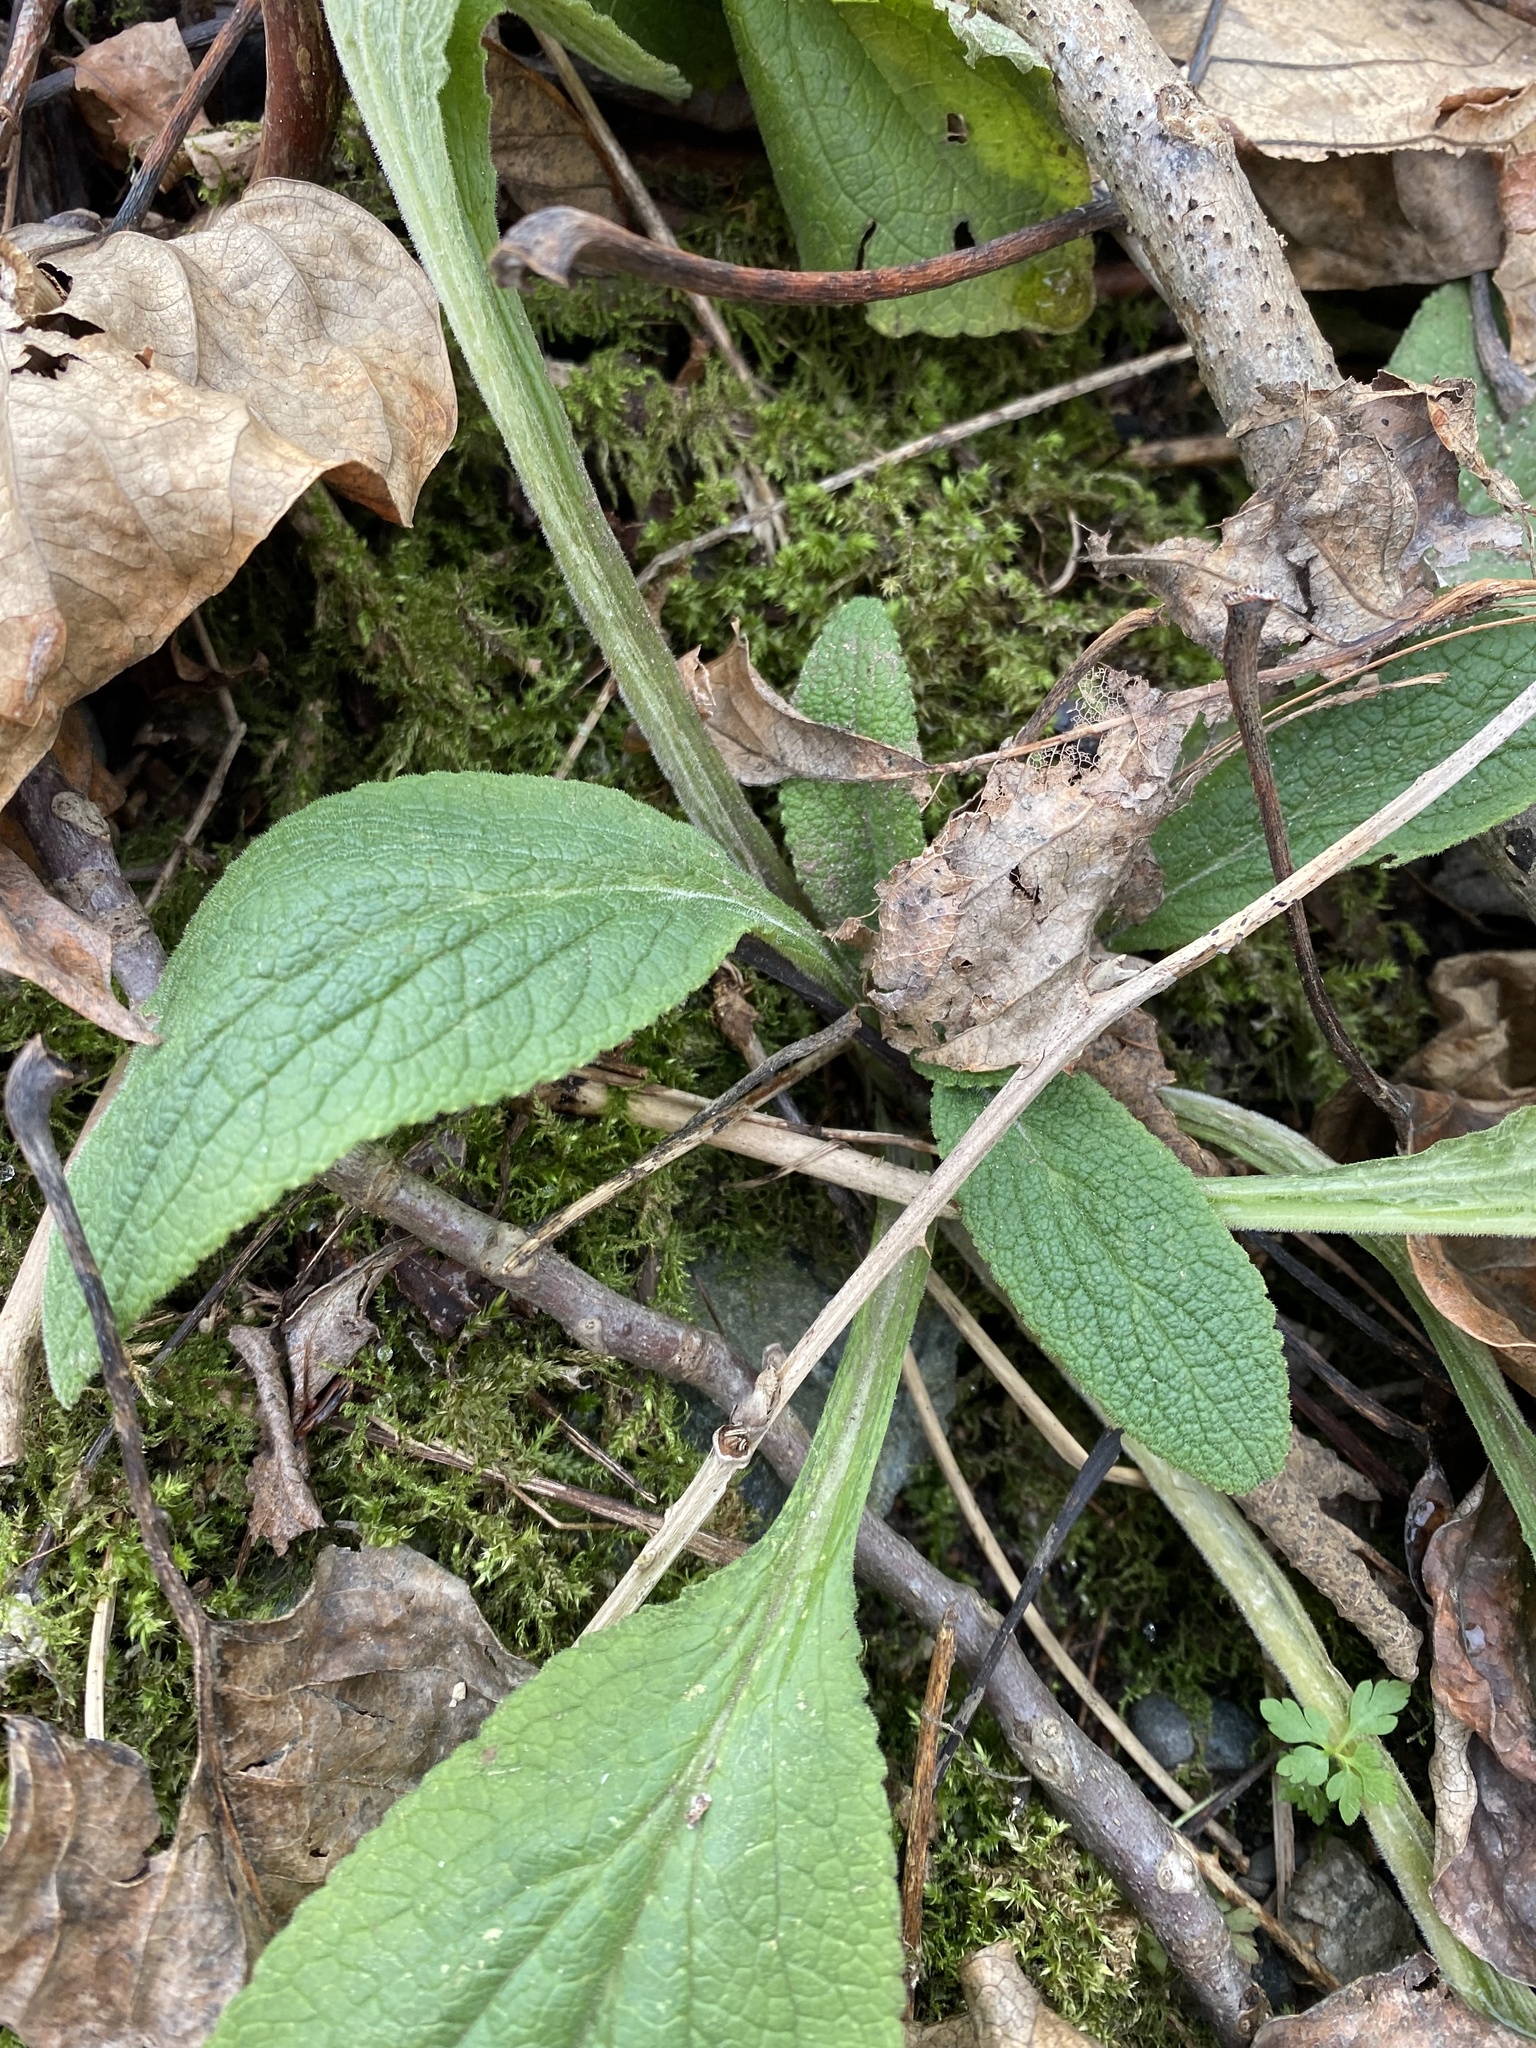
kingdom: Plantae
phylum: Tracheophyta
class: Magnoliopsida
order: Lamiales
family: Plantaginaceae
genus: Digitalis
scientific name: Digitalis purpurea
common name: Foxglove
